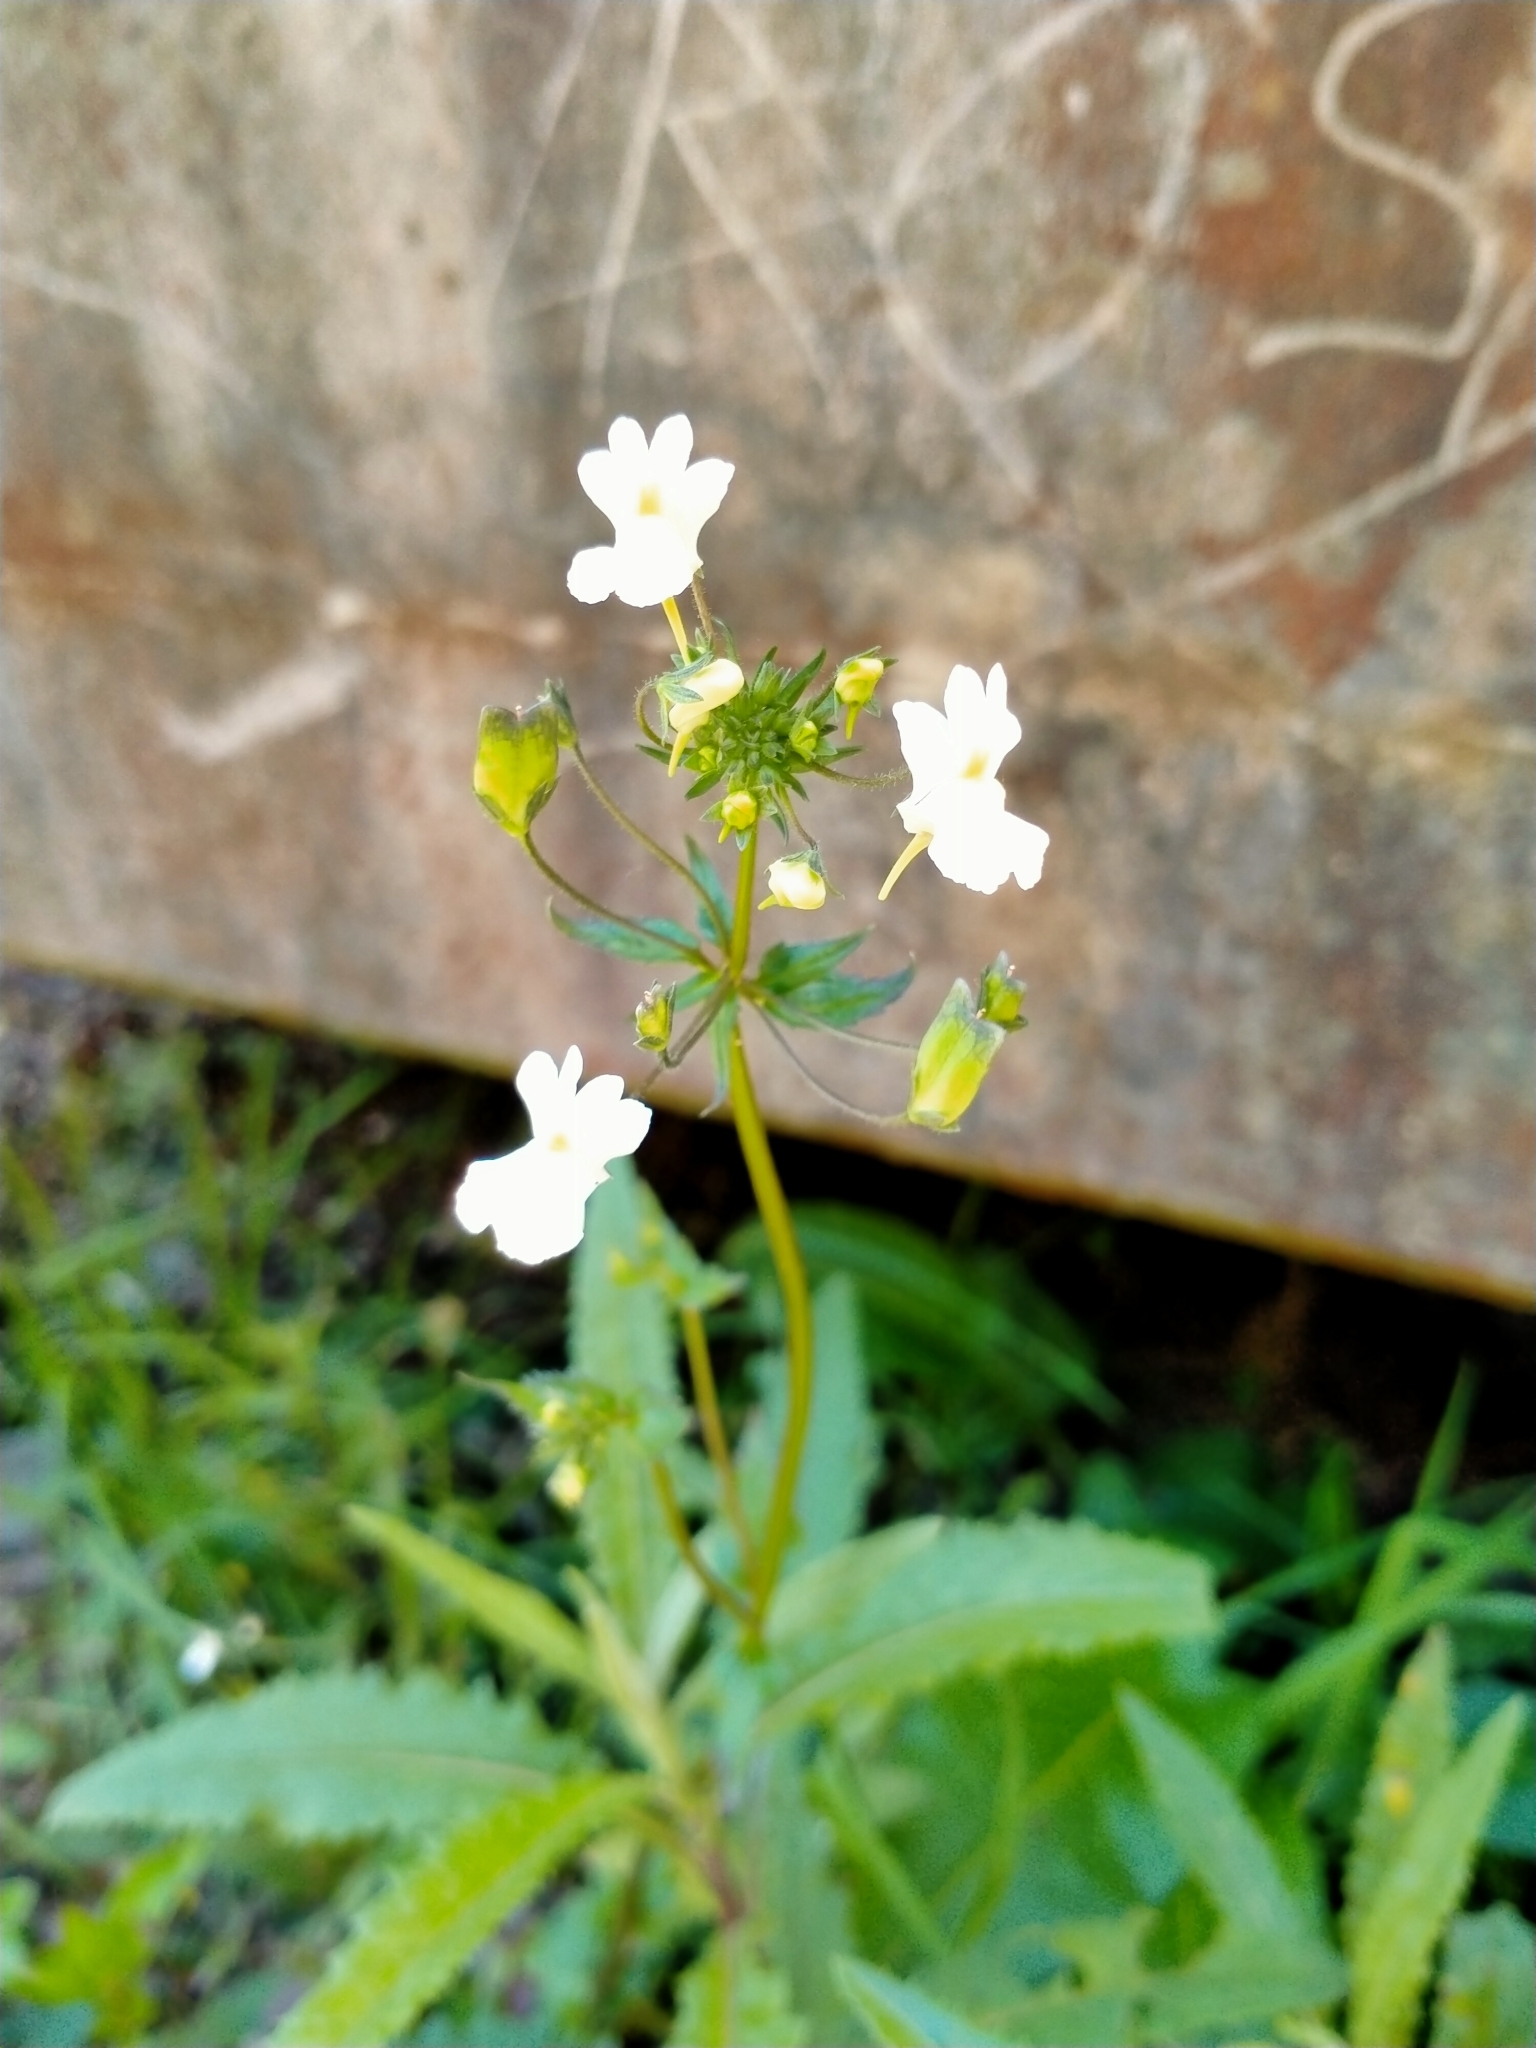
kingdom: Plantae
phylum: Tracheophyta
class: Magnoliopsida
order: Lamiales
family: Scrophulariaceae
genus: Nemesia
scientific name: Nemesia floribunda
